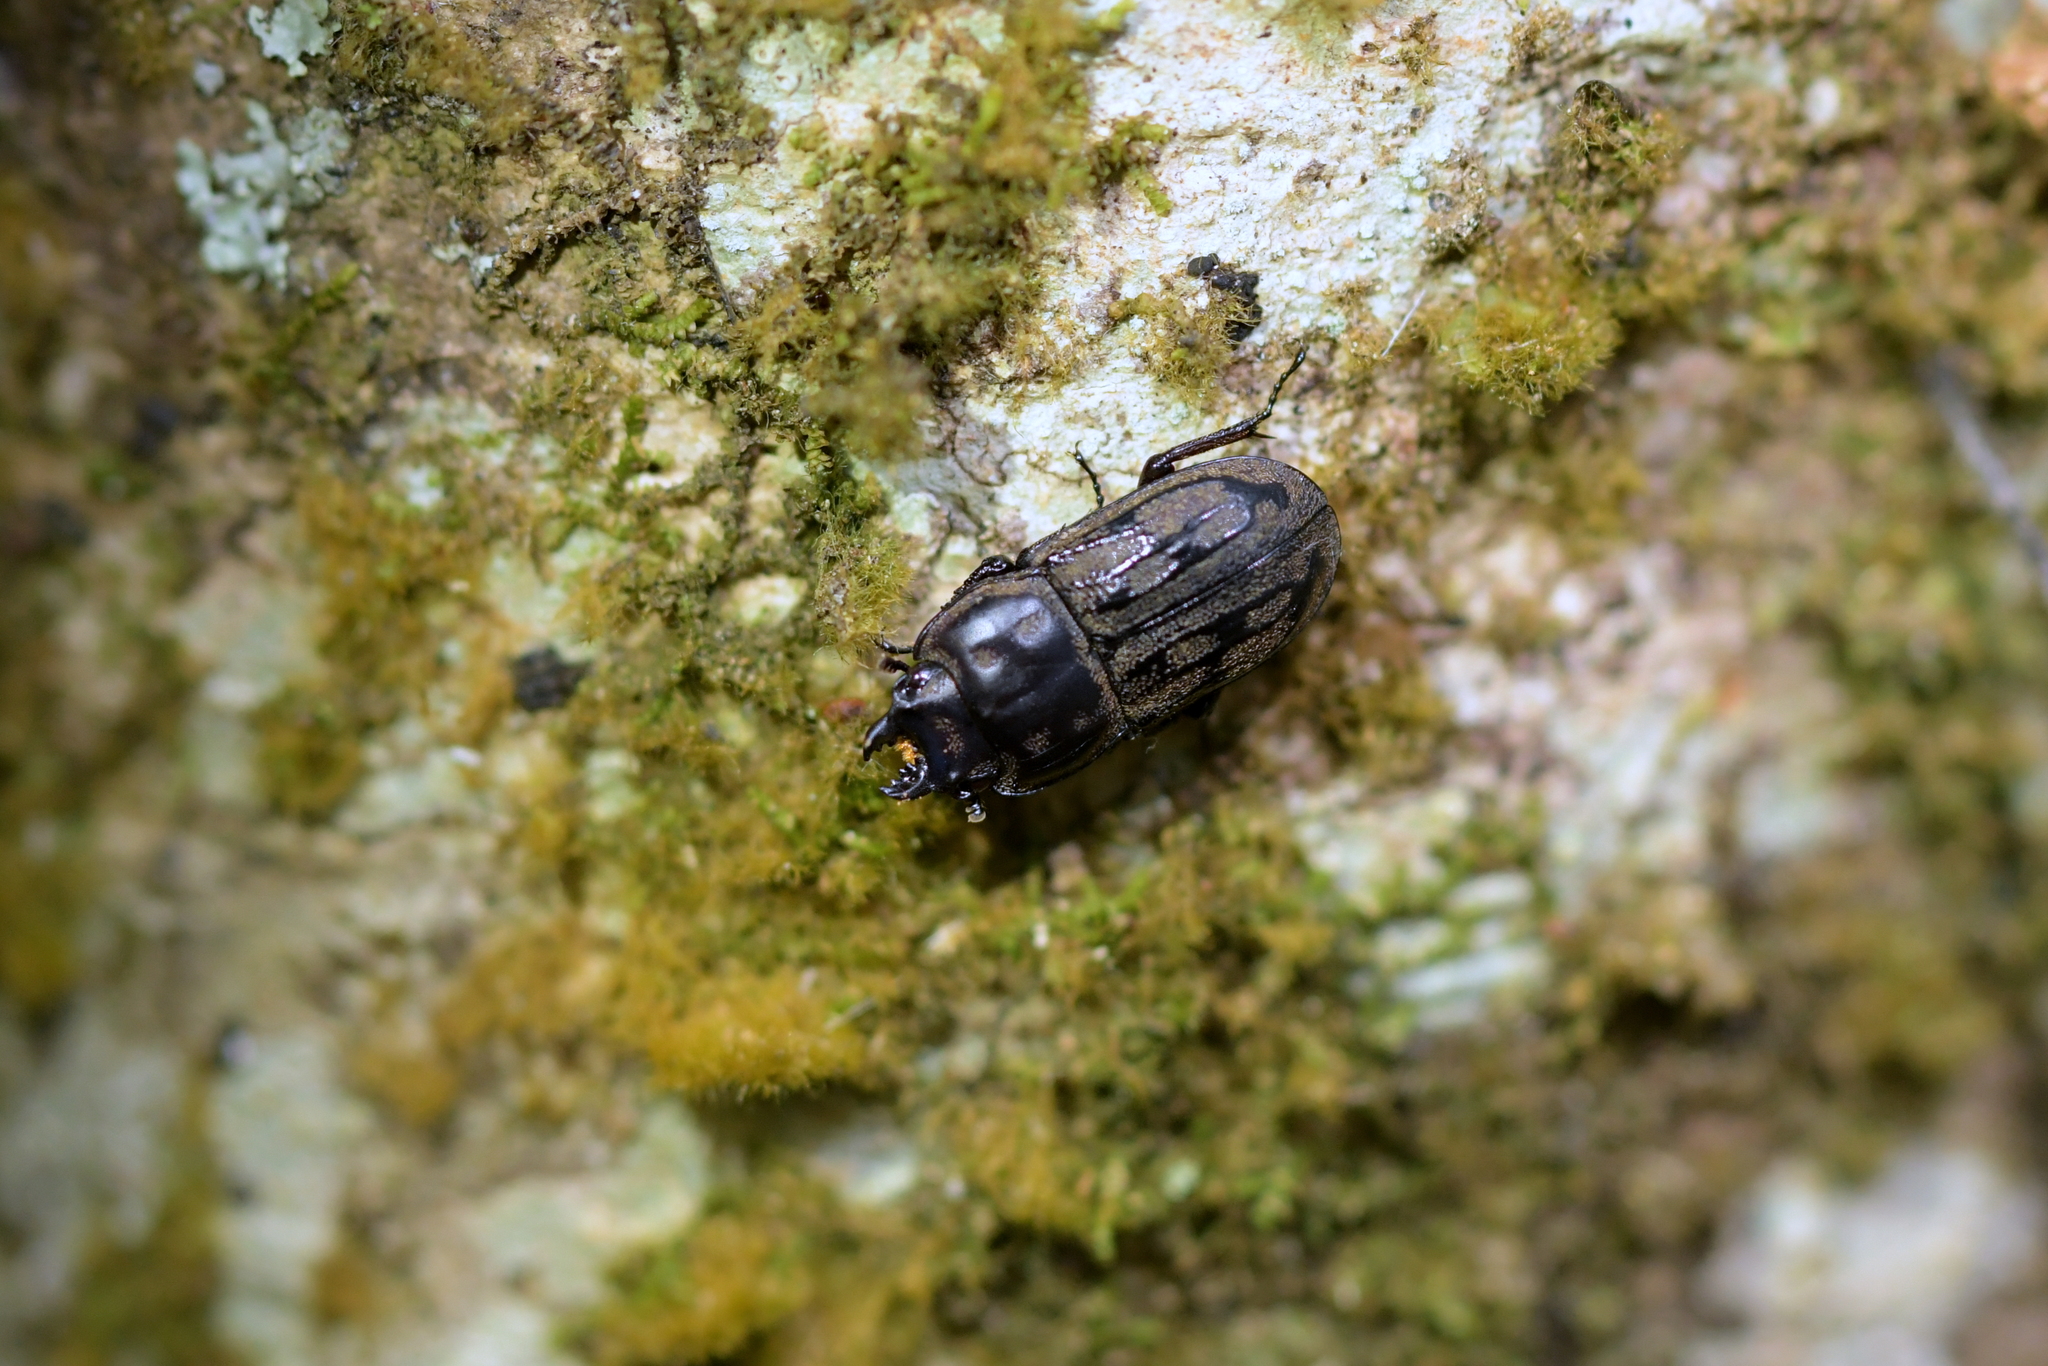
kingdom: Animalia
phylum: Arthropoda
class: Insecta
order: Coleoptera
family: Lucanidae
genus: Paralissotes
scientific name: Paralissotes reticulatus
